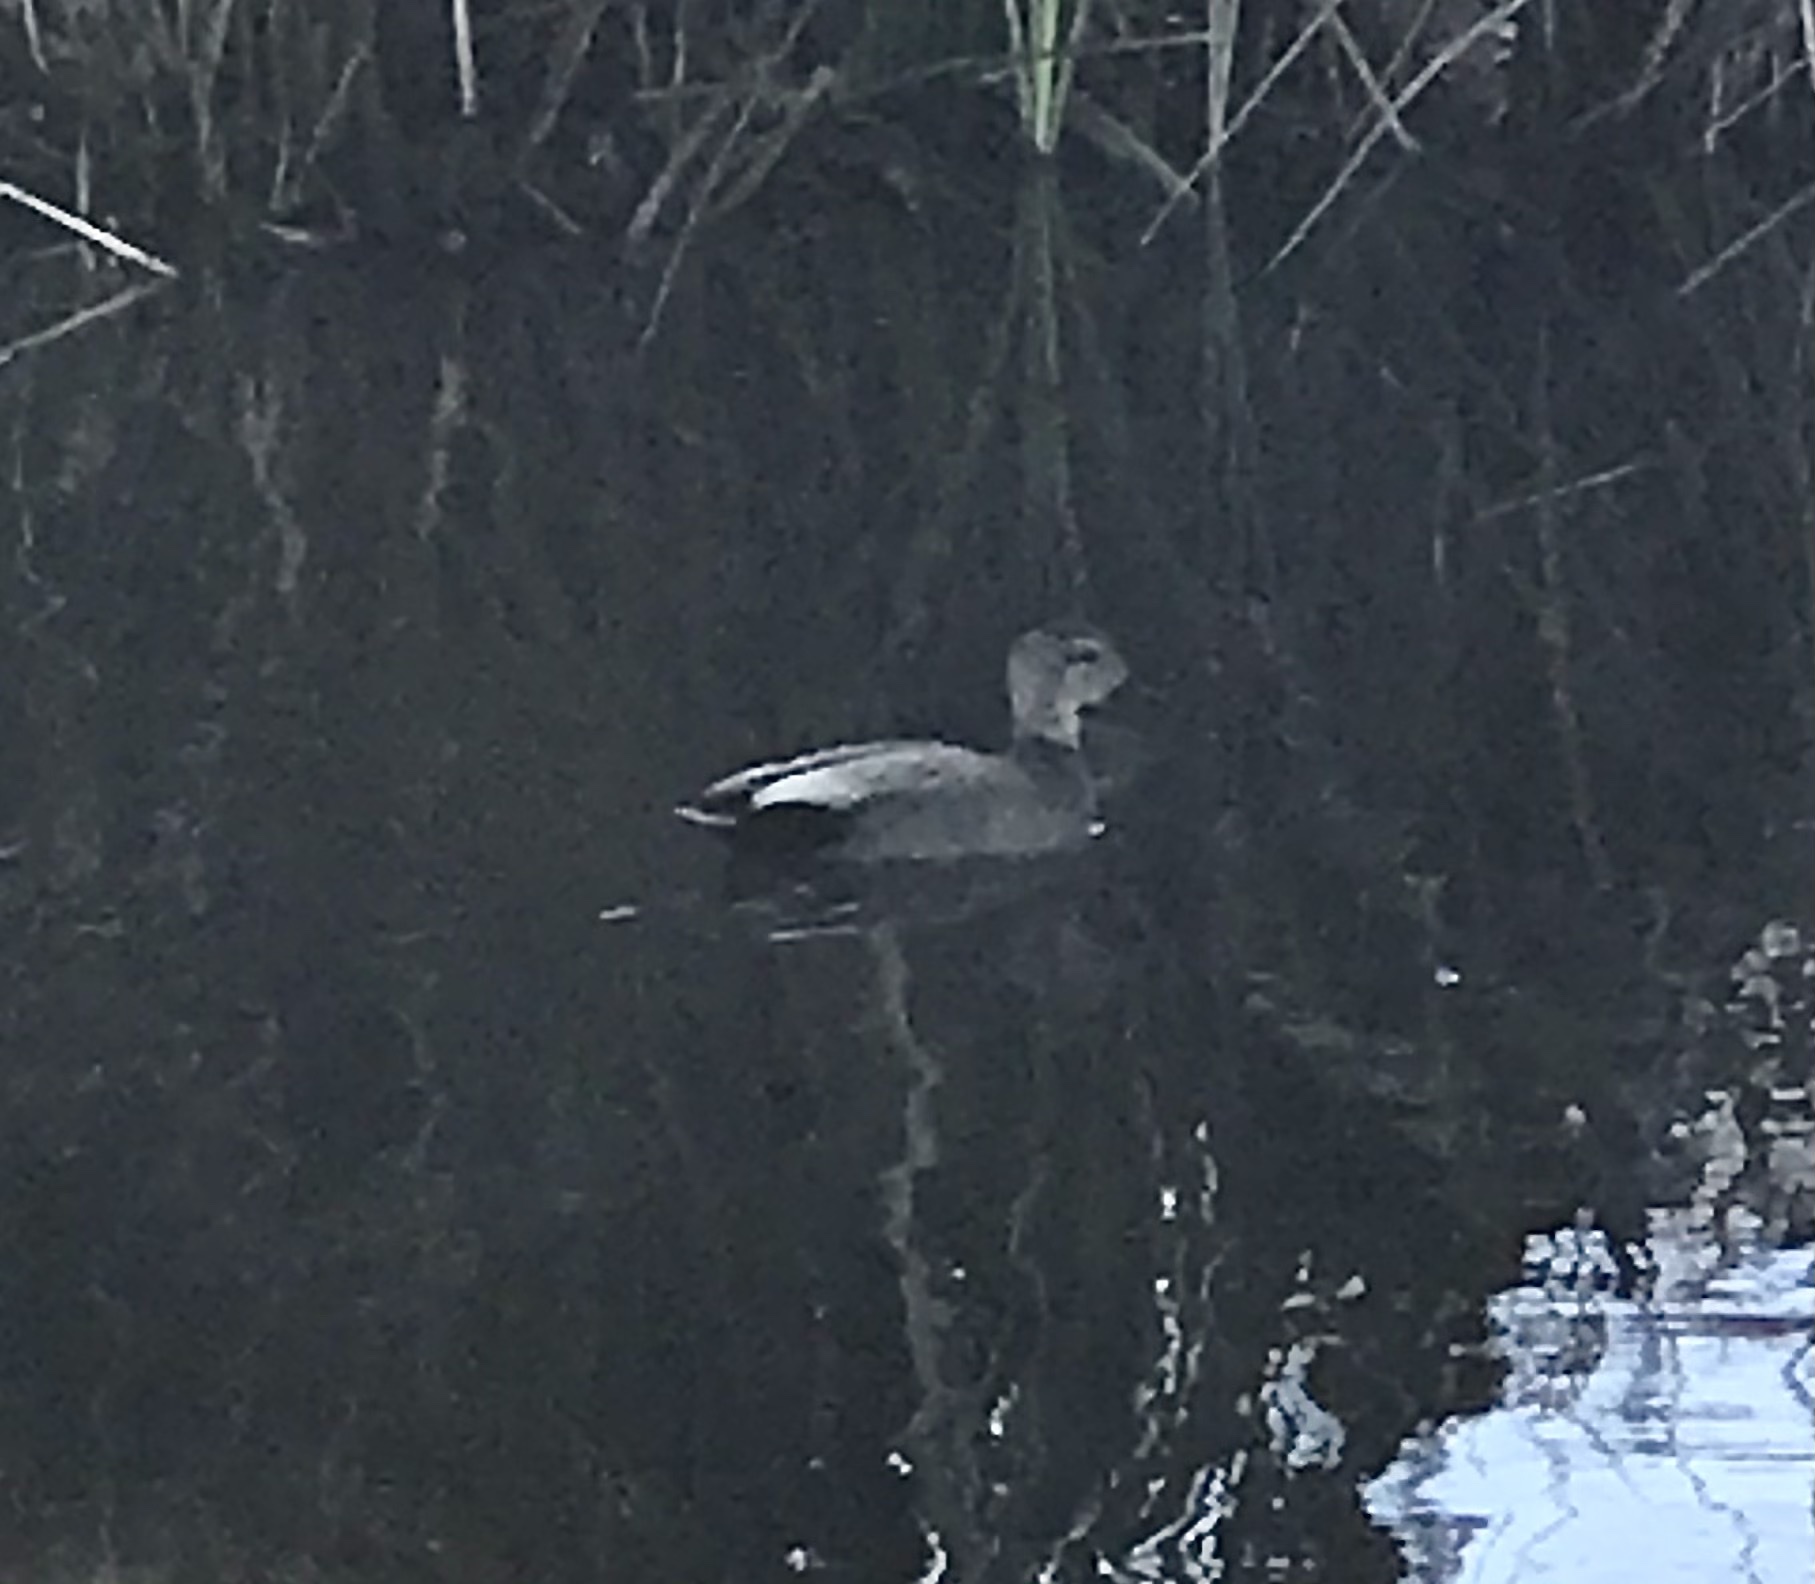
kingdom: Animalia
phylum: Chordata
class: Aves
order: Anseriformes
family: Anatidae
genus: Mareca
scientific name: Mareca strepera
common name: Gadwall
